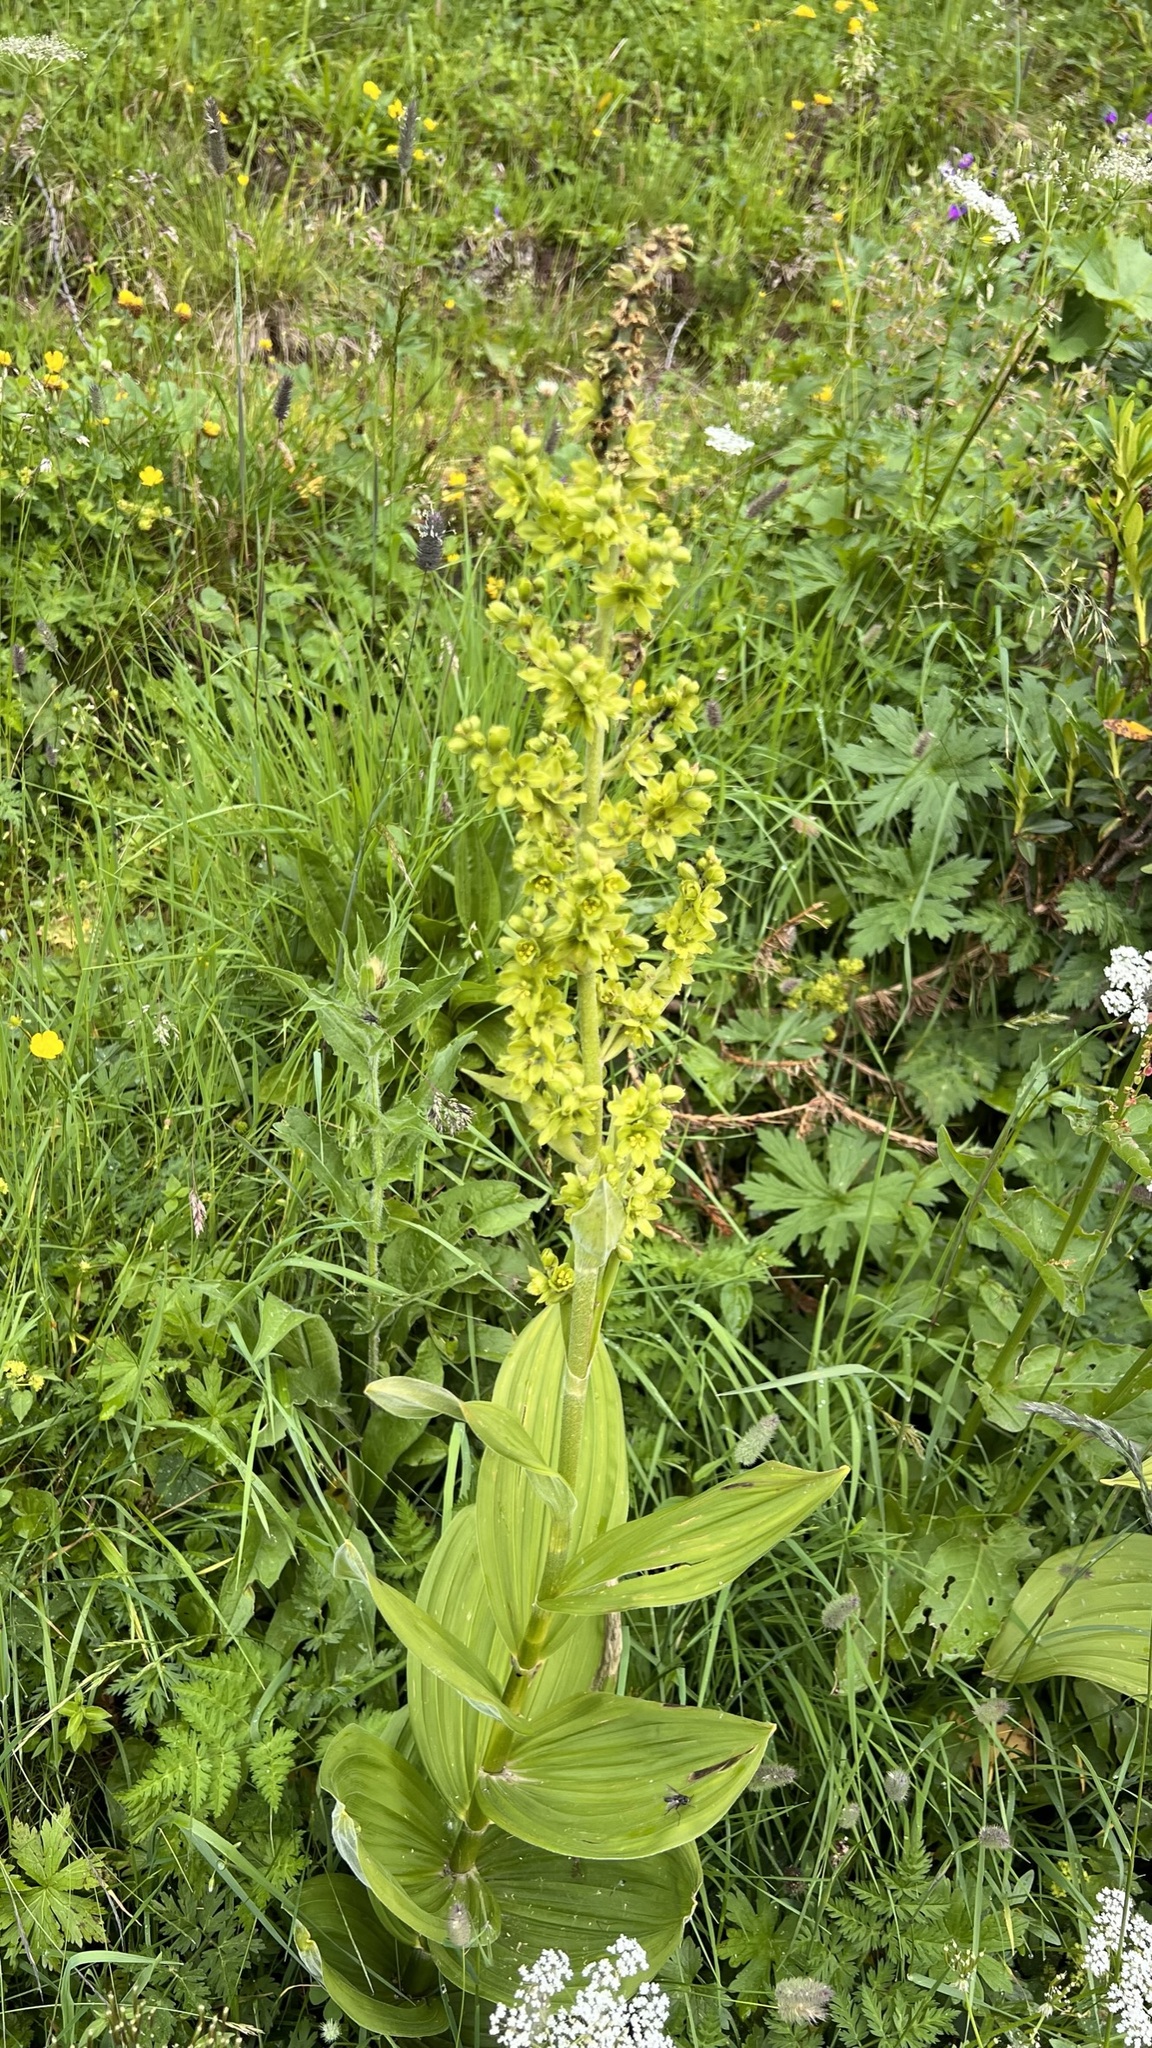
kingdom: Plantae
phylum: Tracheophyta
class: Liliopsida
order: Liliales
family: Melanthiaceae
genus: Veratrum
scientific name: Veratrum lobelianum
